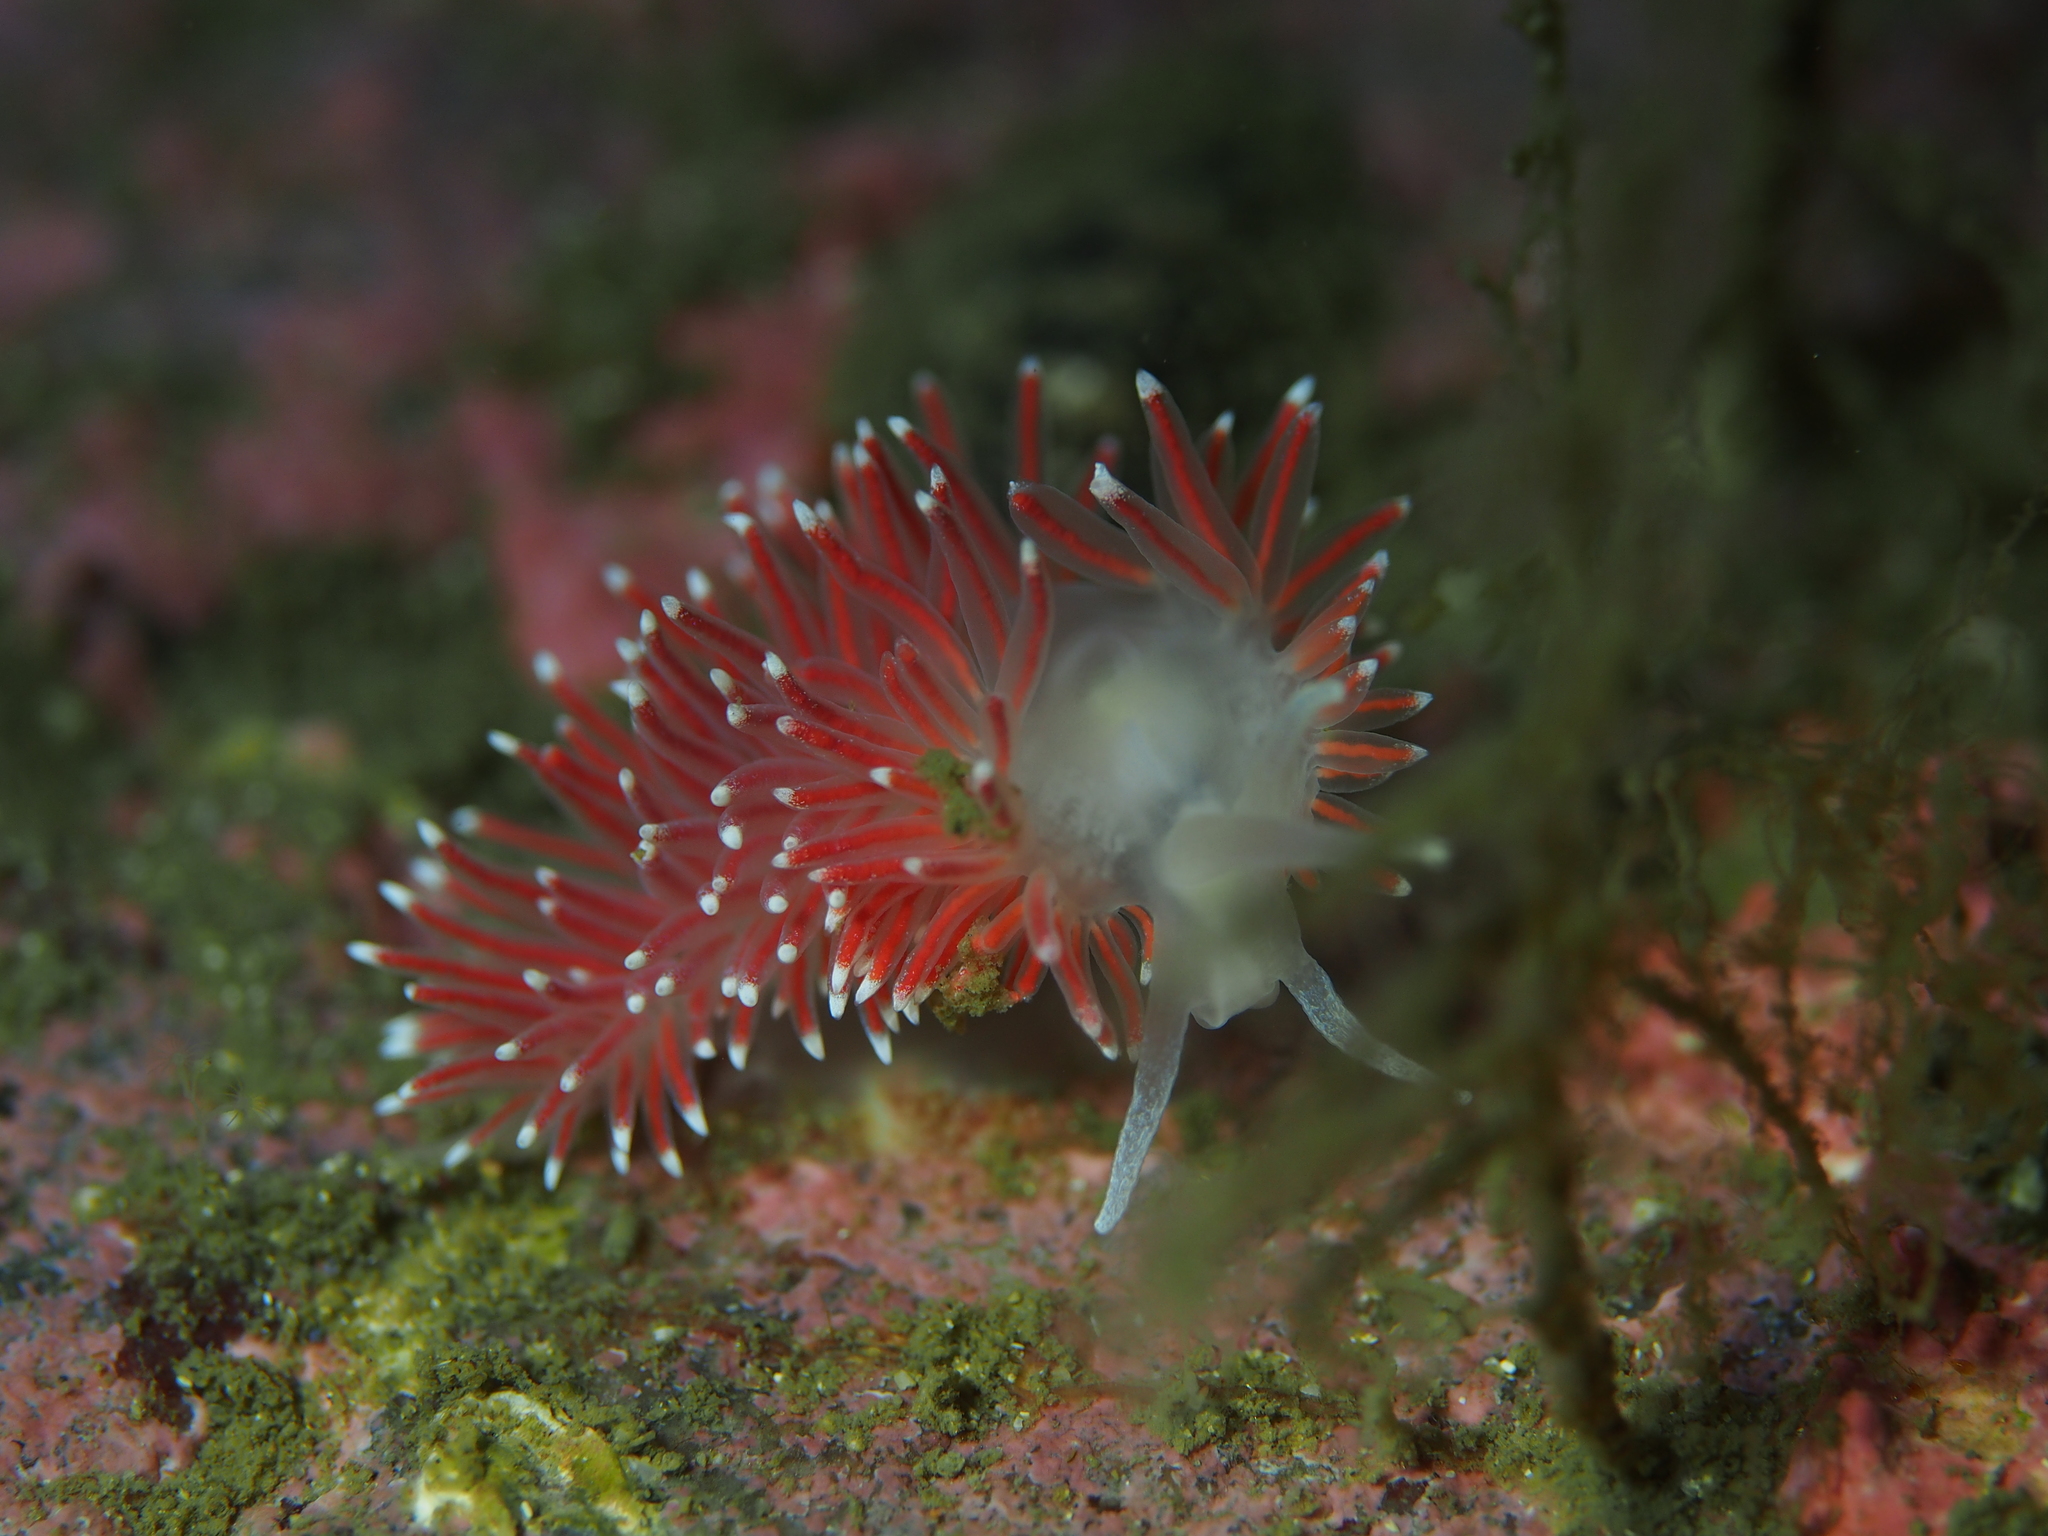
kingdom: Animalia
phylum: Mollusca
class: Gastropoda
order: Nudibranchia
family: Flabellinidae
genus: Carronella
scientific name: Carronella pellucida
